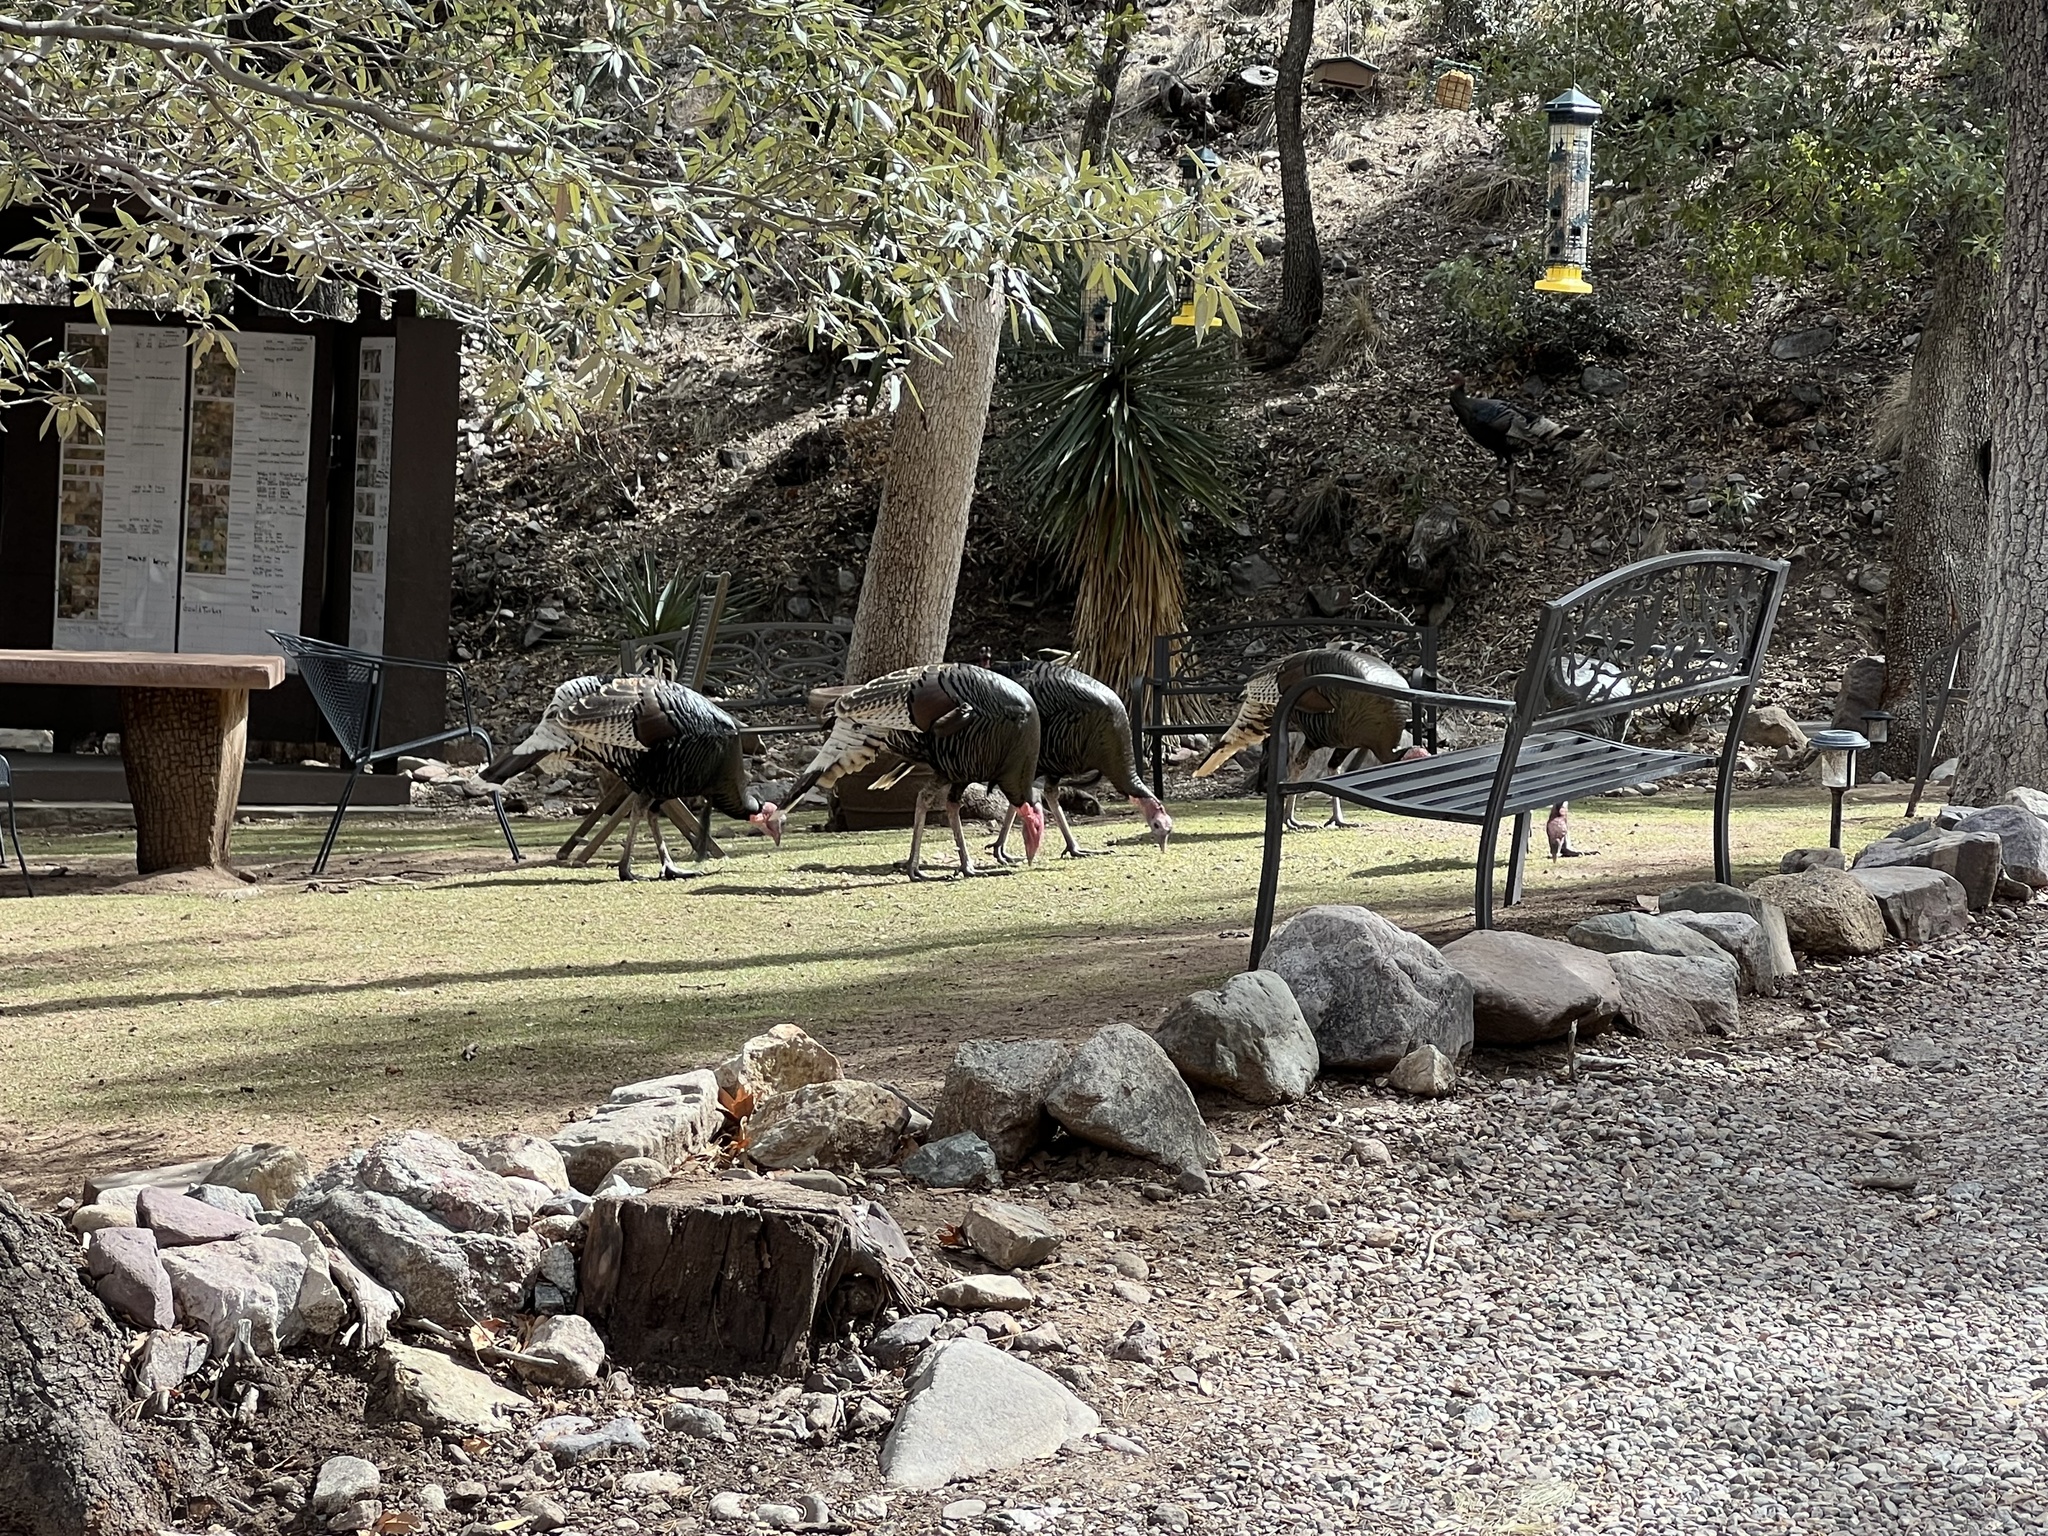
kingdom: Animalia
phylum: Chordata
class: Aves
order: Galliformes
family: Phasianidae
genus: Meleagris
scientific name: Meleagris gallopavo
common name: Wild turkey
